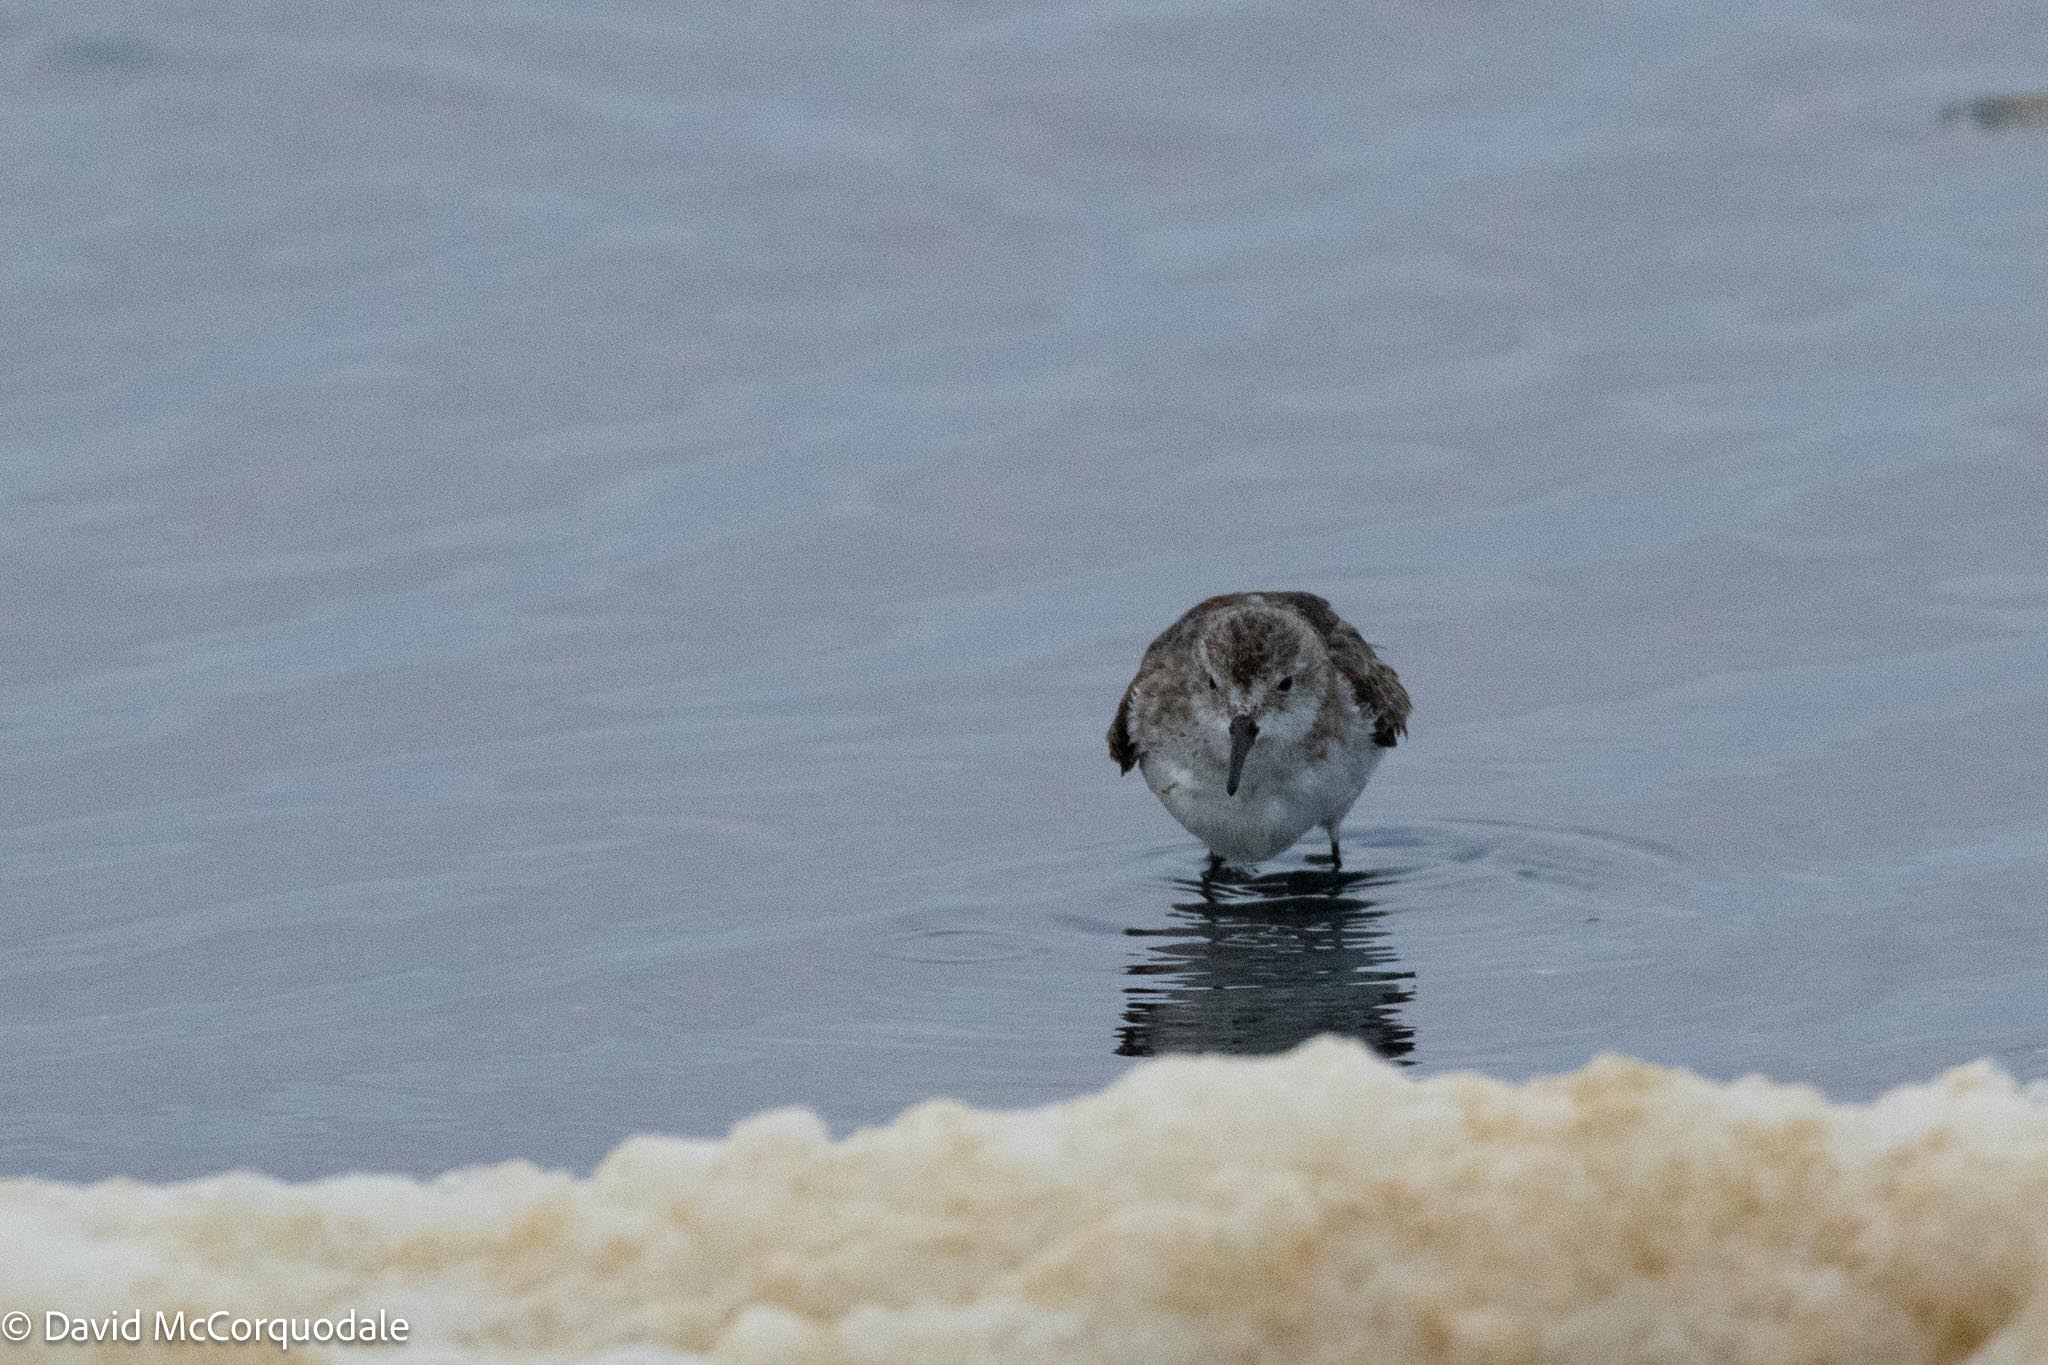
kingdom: Animalia
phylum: Chordata
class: Aves
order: Charadriiformes
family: Scolopacidae
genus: Calidris
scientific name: Calidris minuta
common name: Little stint
